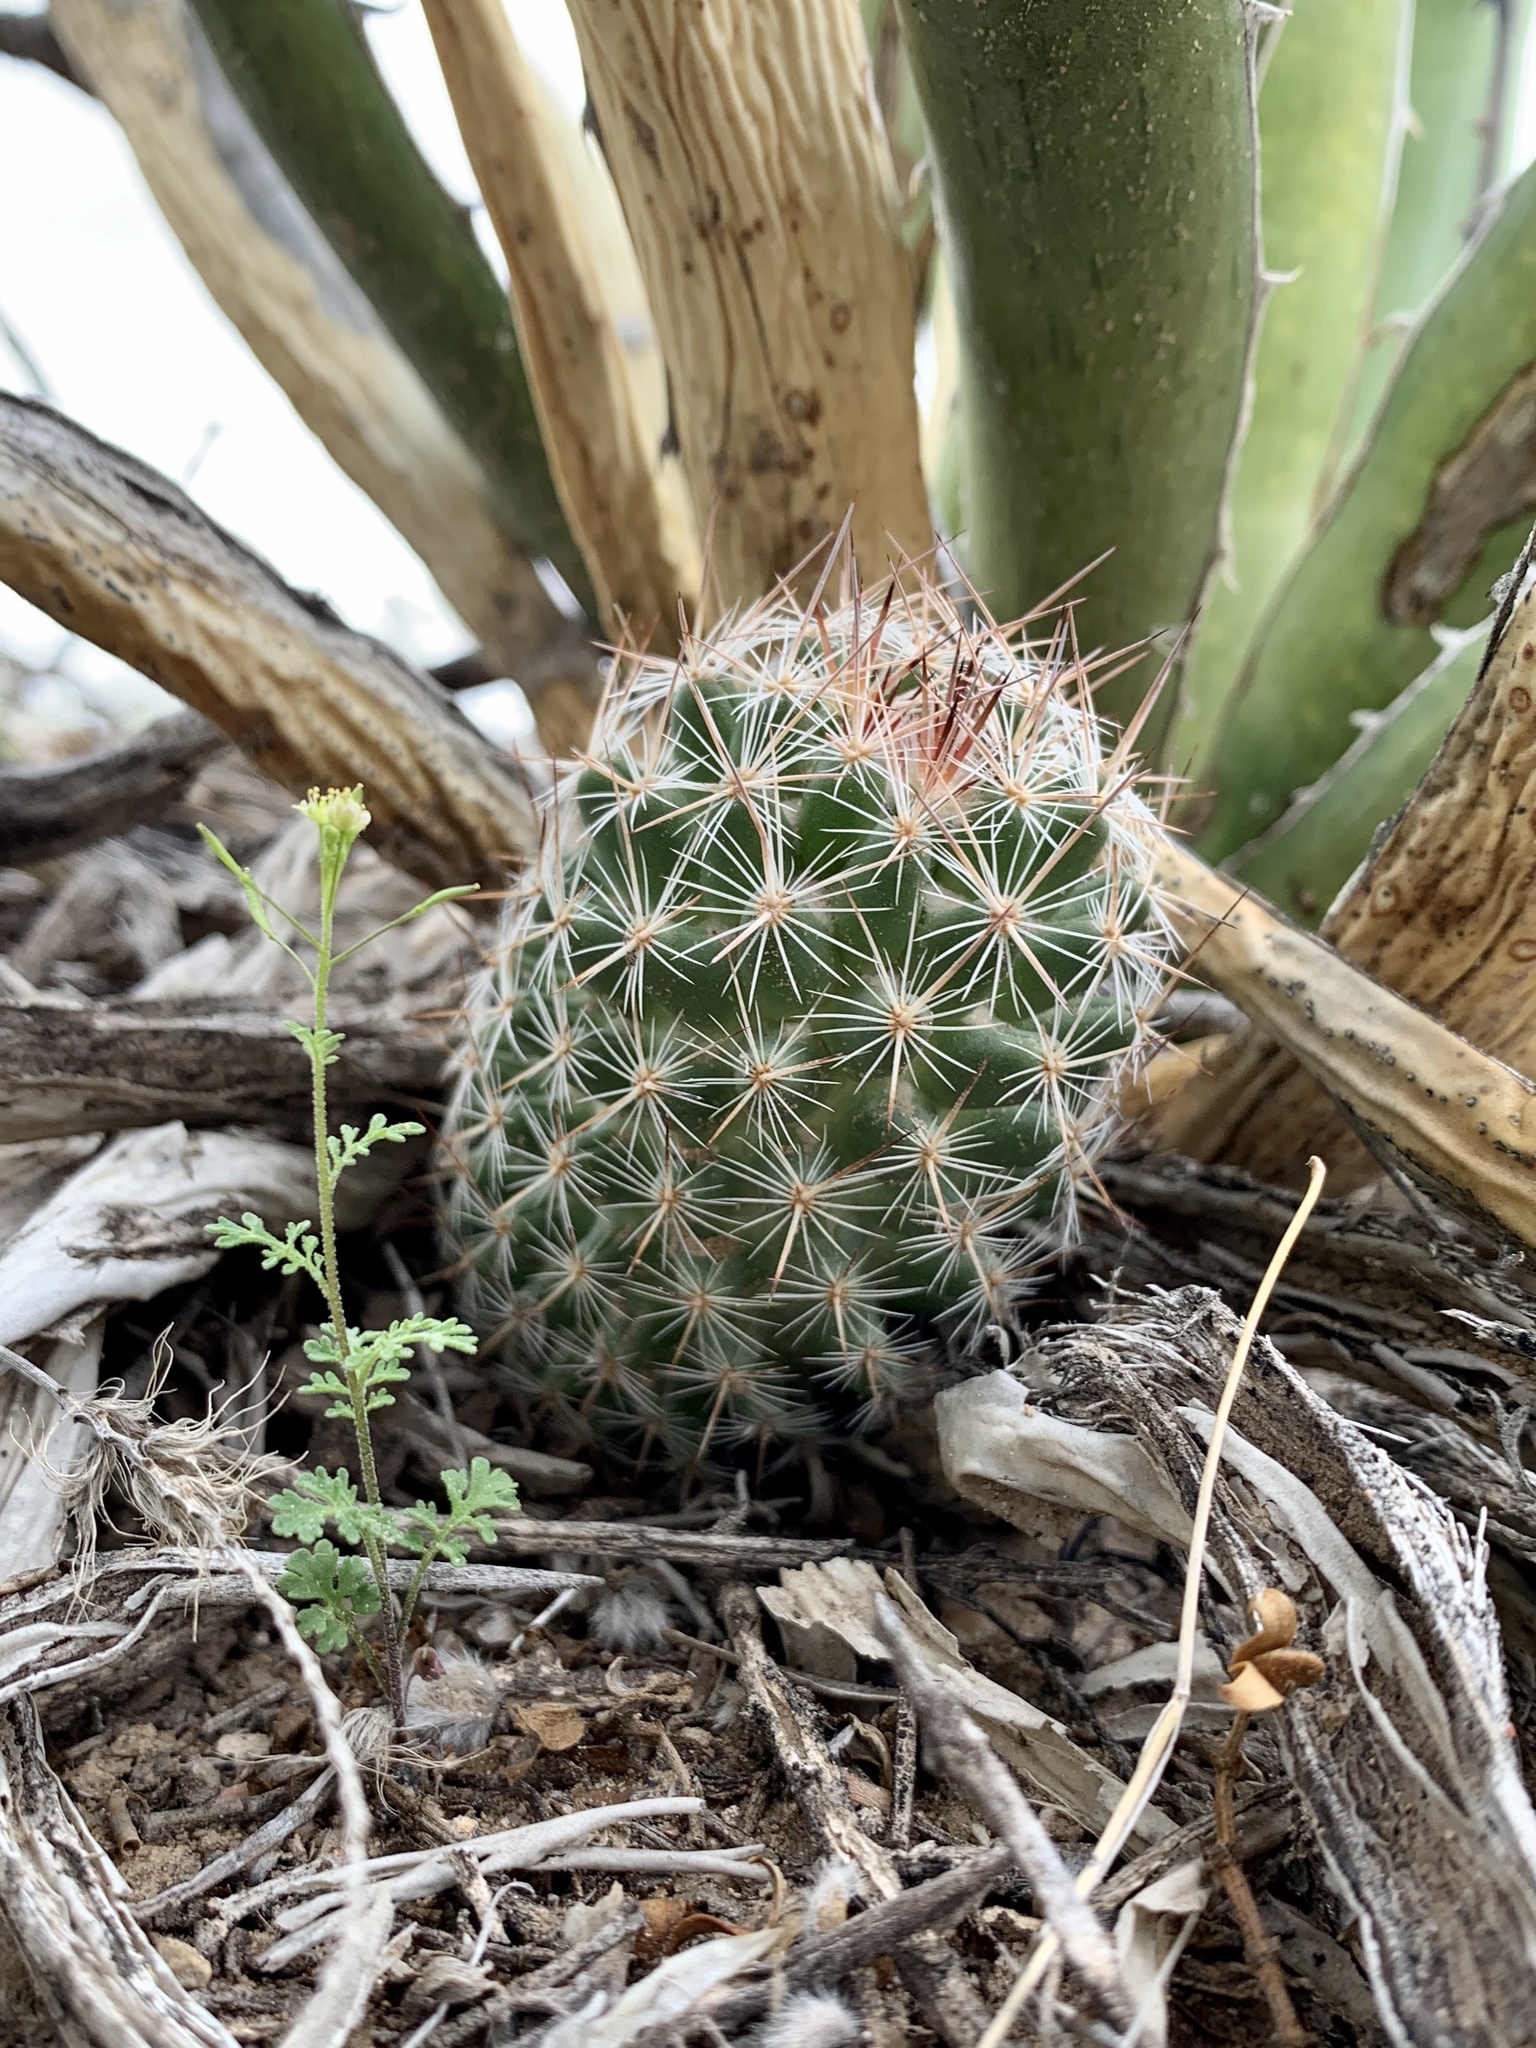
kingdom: Plantae
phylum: Tracheophyta
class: Magnoliopsida
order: Caryophyllales
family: Cactaceae
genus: Pelecyphora
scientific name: Pelecyphora tuberculosa
